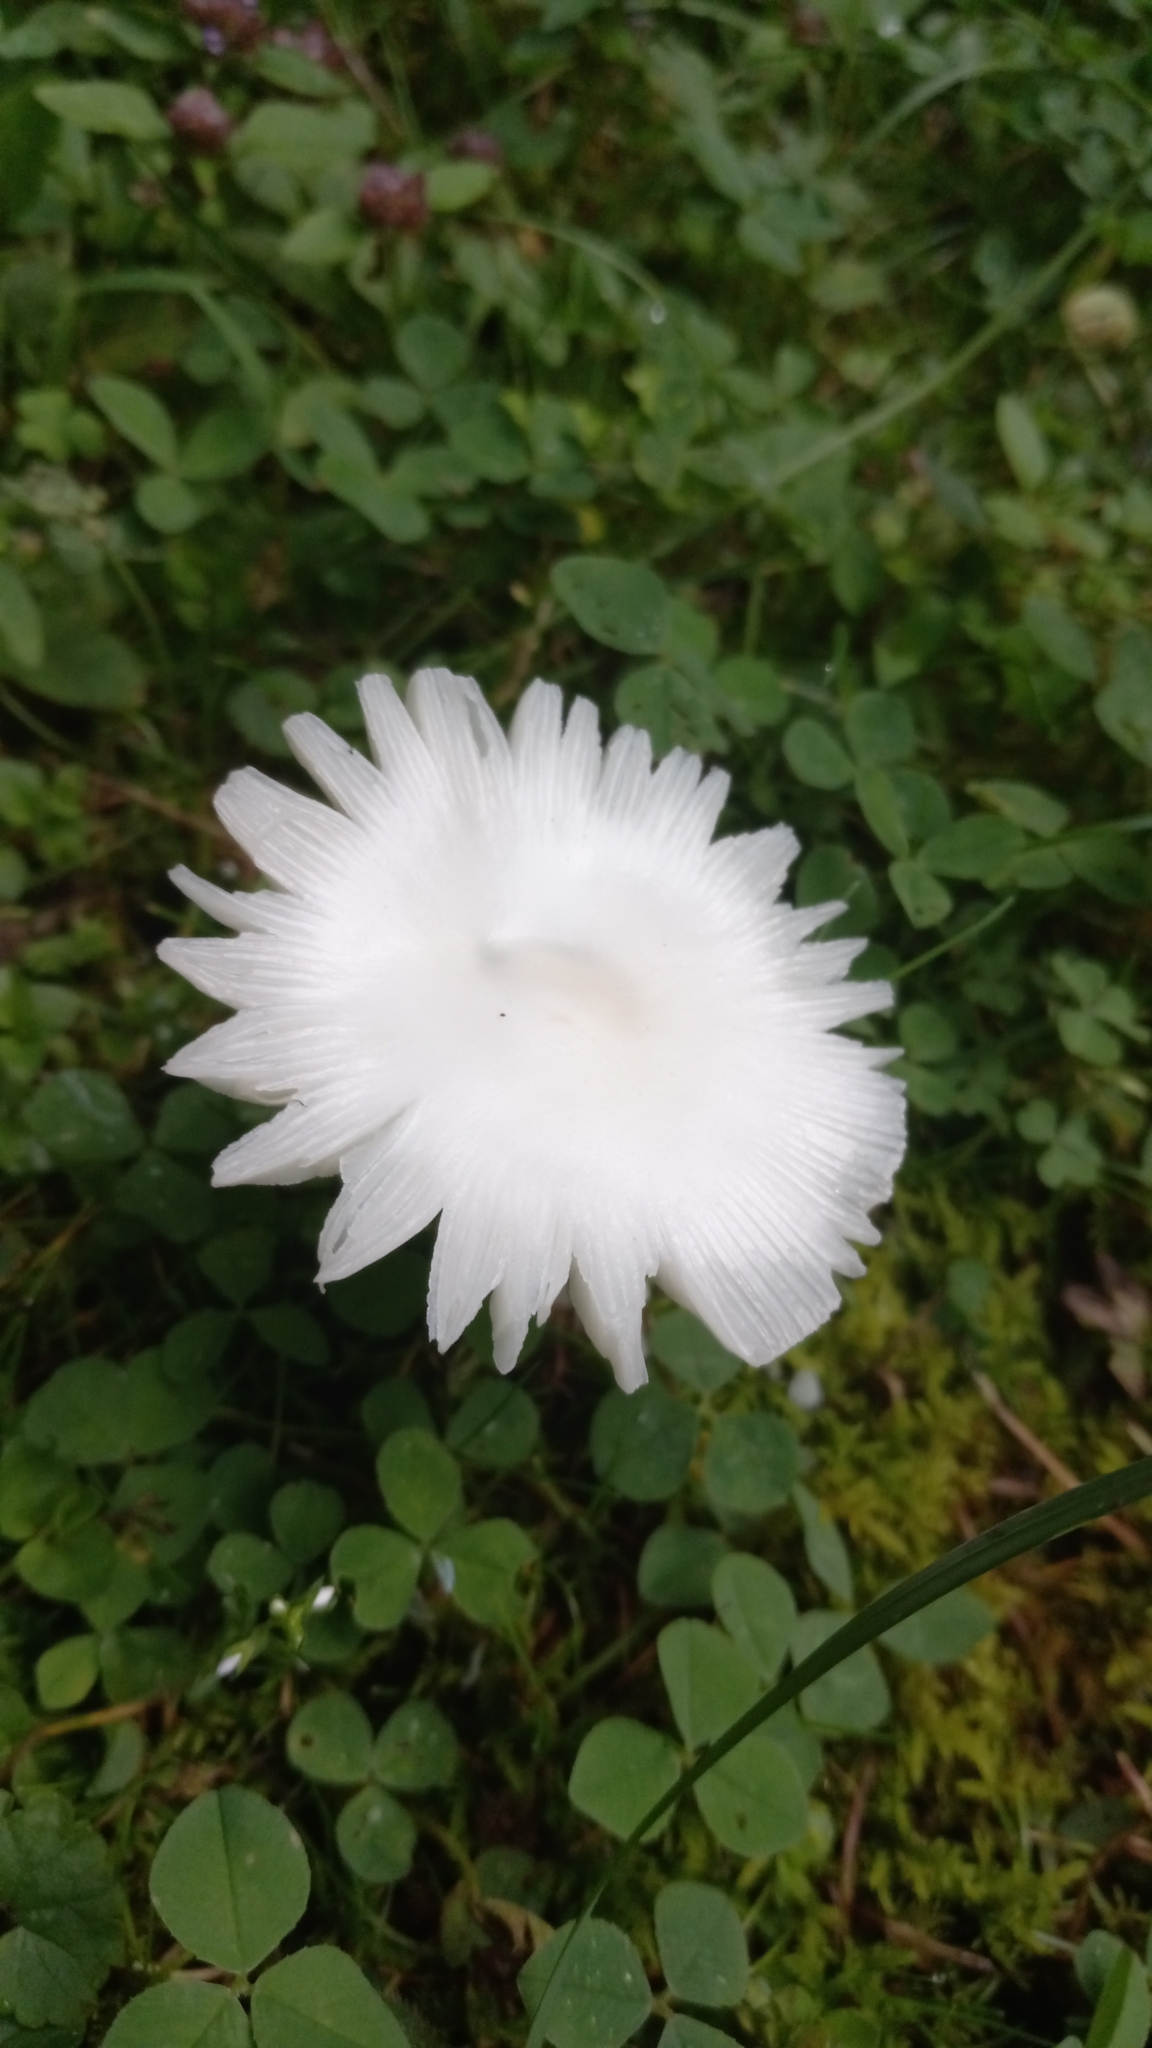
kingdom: Fungi
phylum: Basidiomycota
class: Agaricomycetes
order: Agaricales
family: Agaricaceae
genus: Leucocoprinus
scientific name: Leucocoprinus fragilissimus
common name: Fragile dapperling
